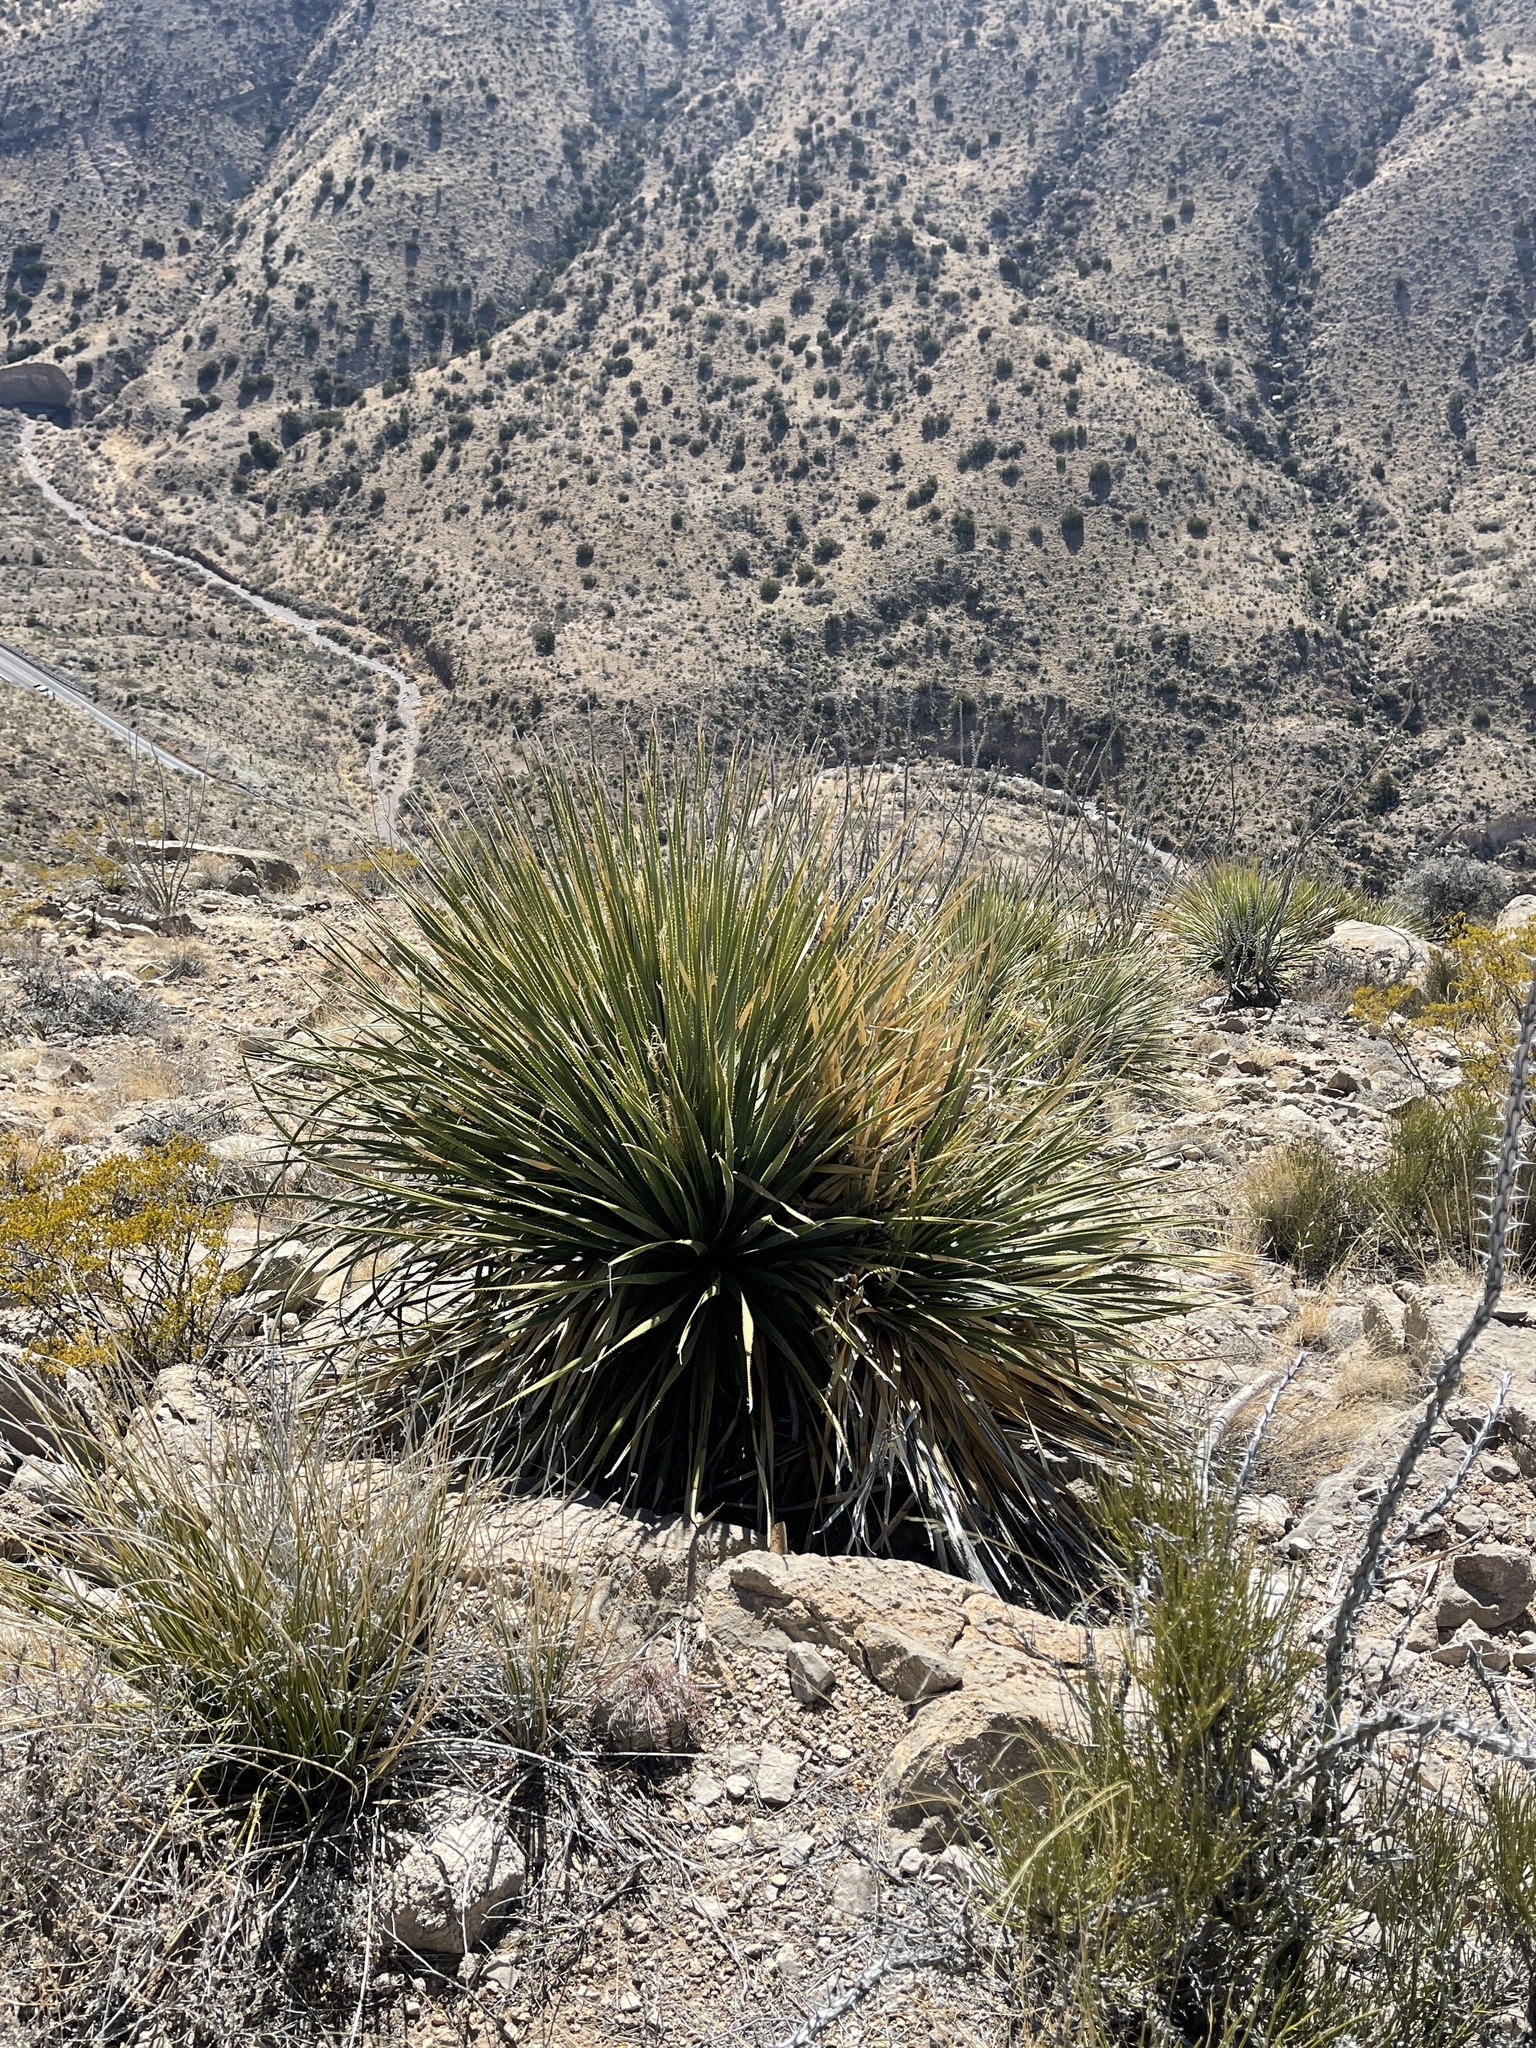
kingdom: Plantae
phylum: Tracheophyta
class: Liliopsida
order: Asparagales
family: Asparagaceae
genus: Dasylirion
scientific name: Dasylirion wheeleri
